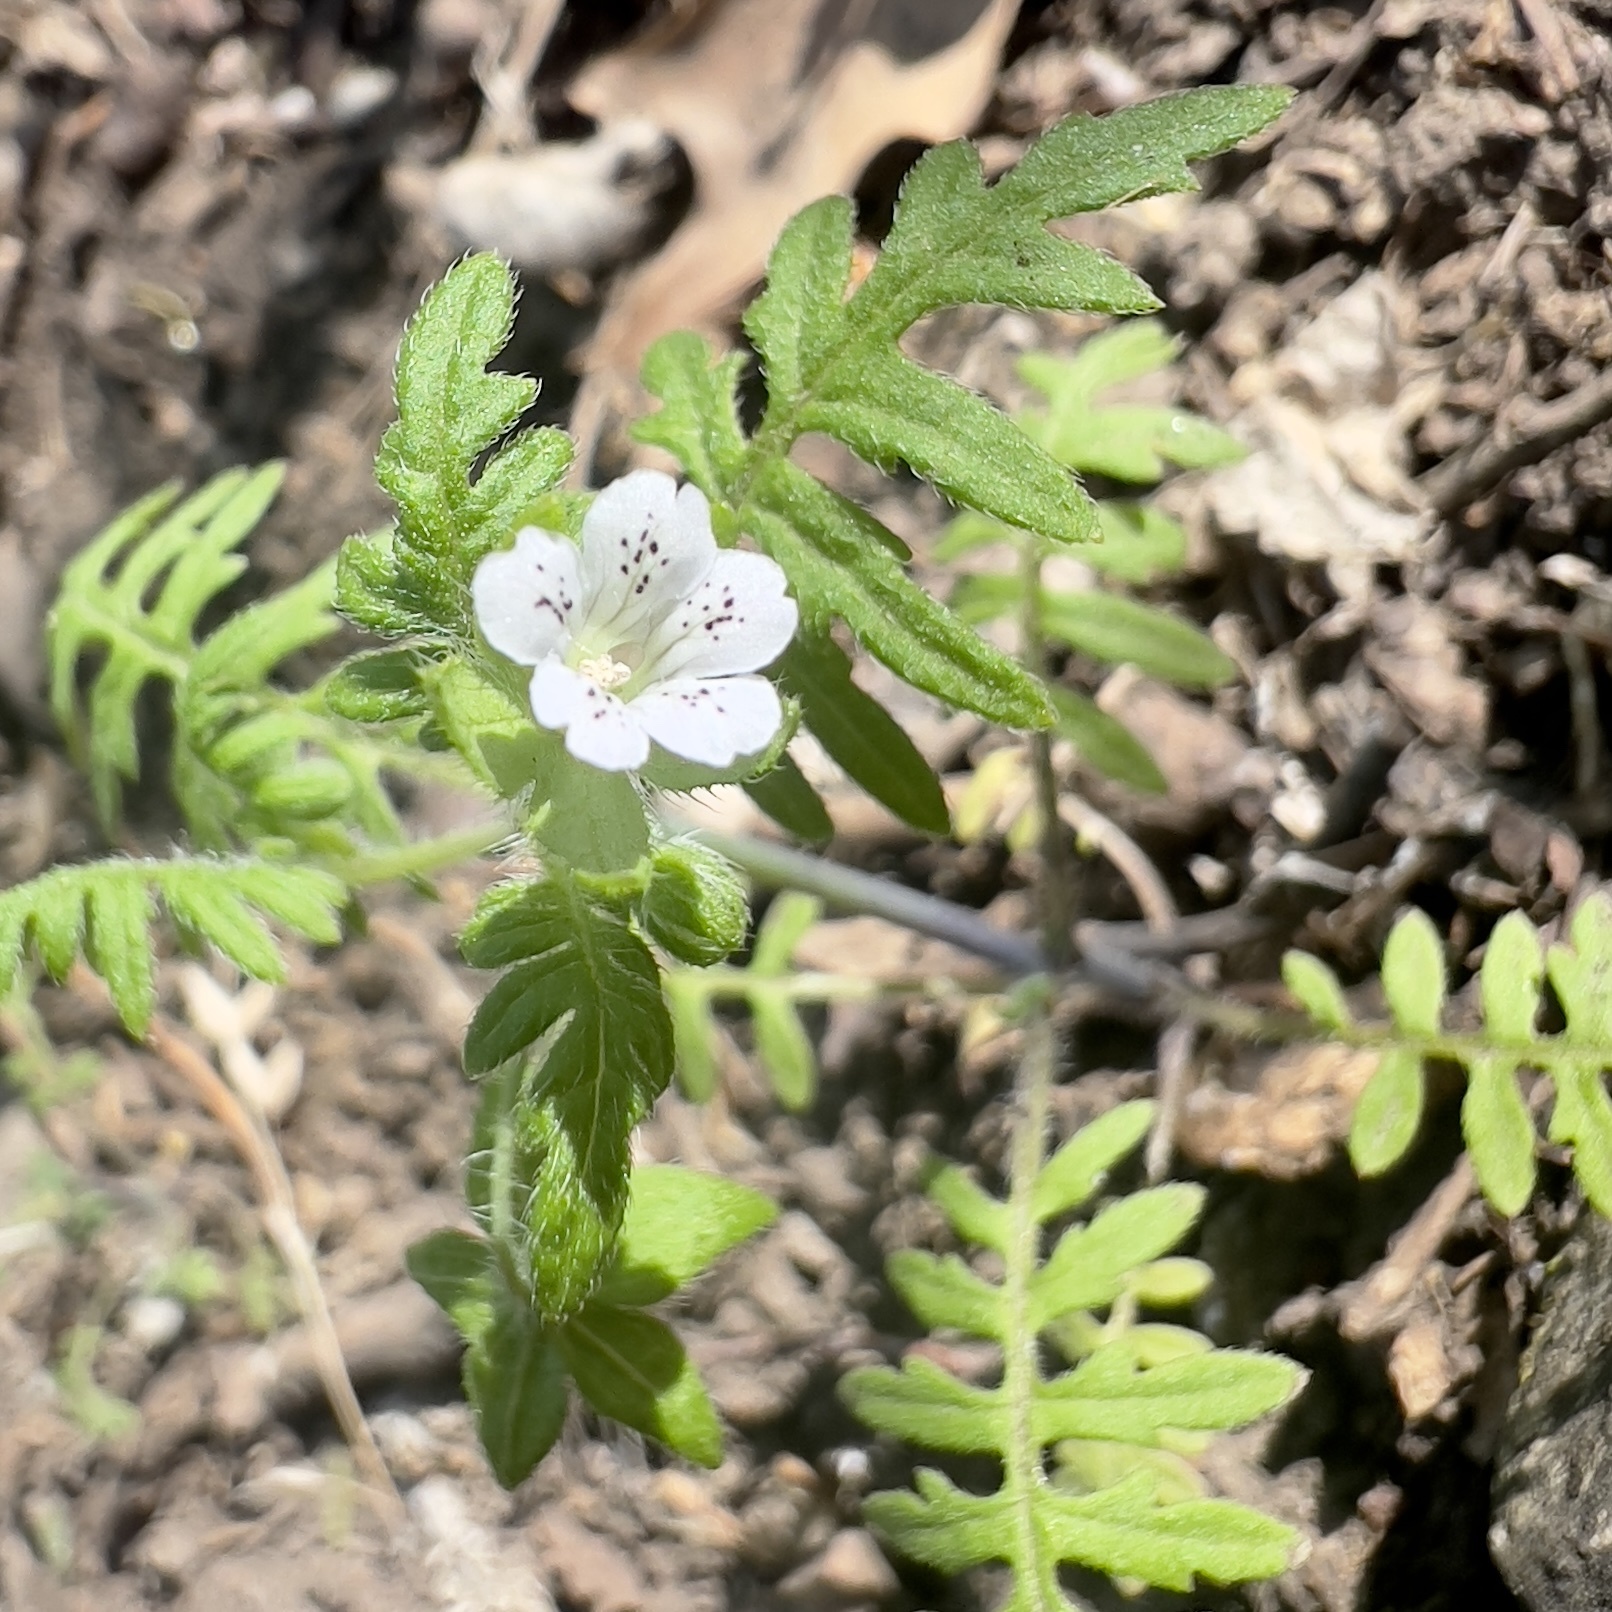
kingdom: Plantae
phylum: Tracheophyta
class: Magnoliopsida
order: Boraginales
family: Hydrophyllaceae
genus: Ellisia
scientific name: Ellisia nyctelea
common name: Aunt lucy
